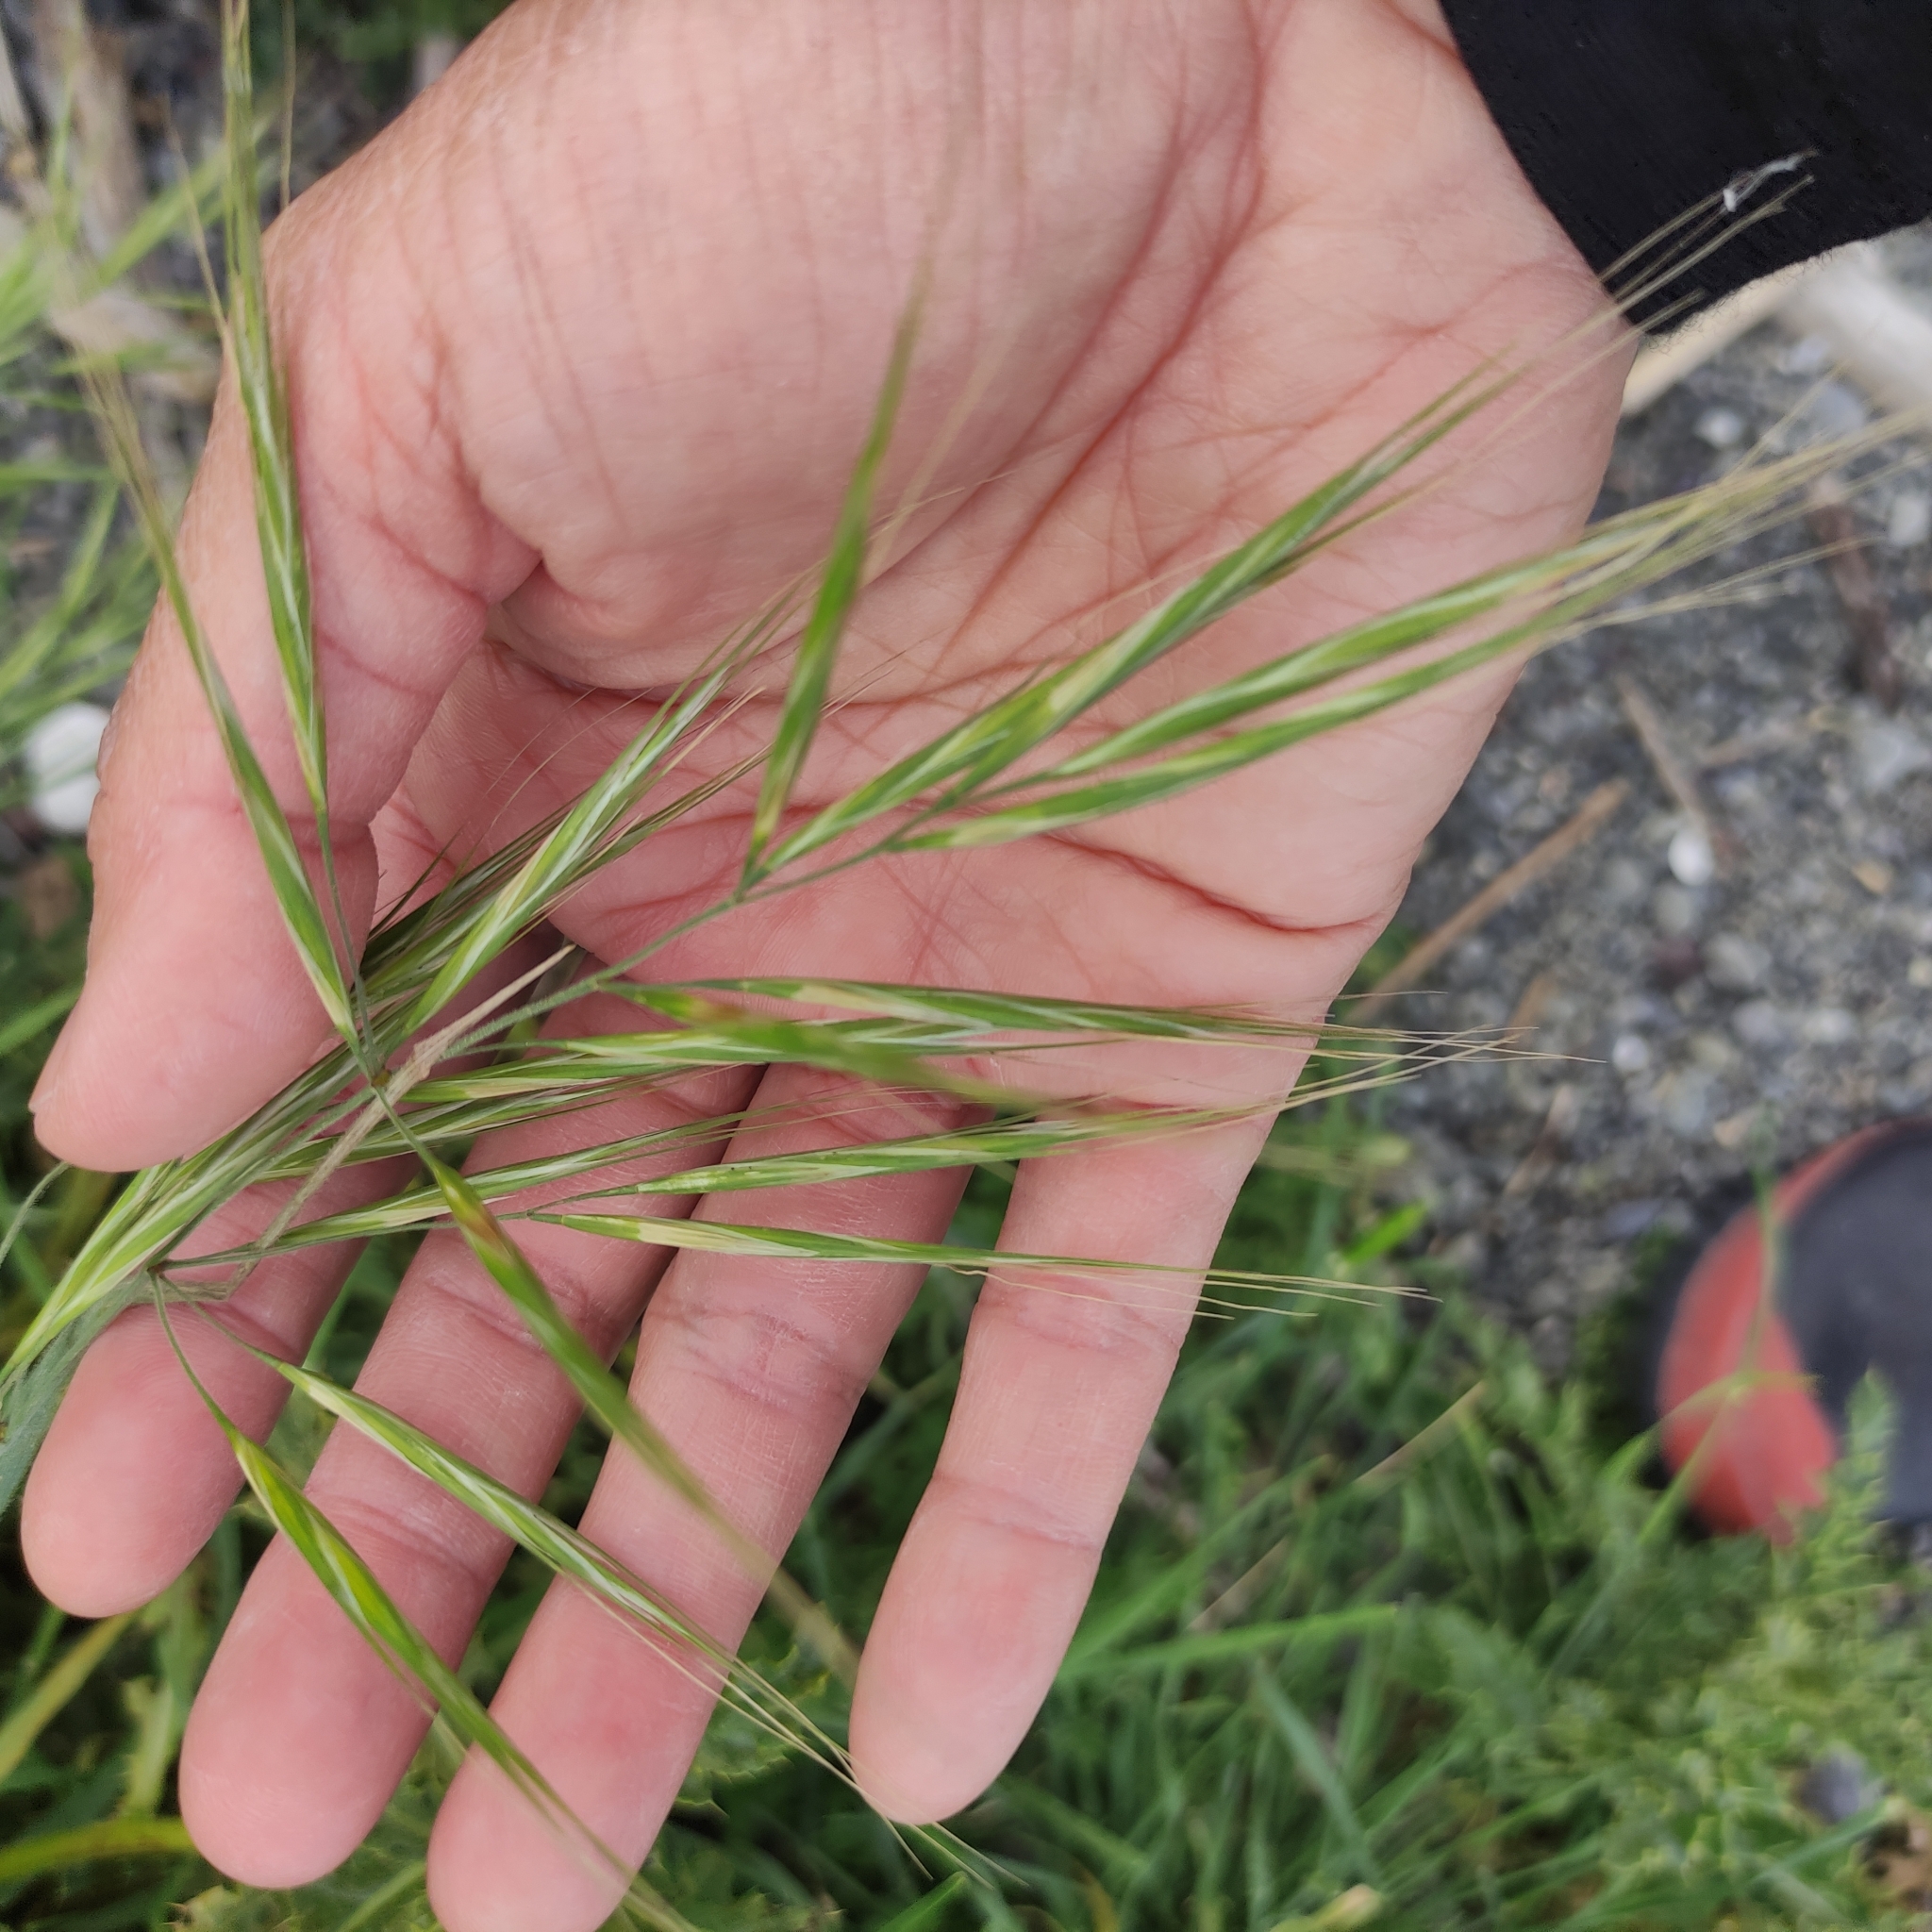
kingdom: Plantae
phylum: Tracheophyta
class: Liliopsida
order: Poales
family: Poaceae
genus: Bromus
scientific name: Bromus diandrus
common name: Ripgut brome
